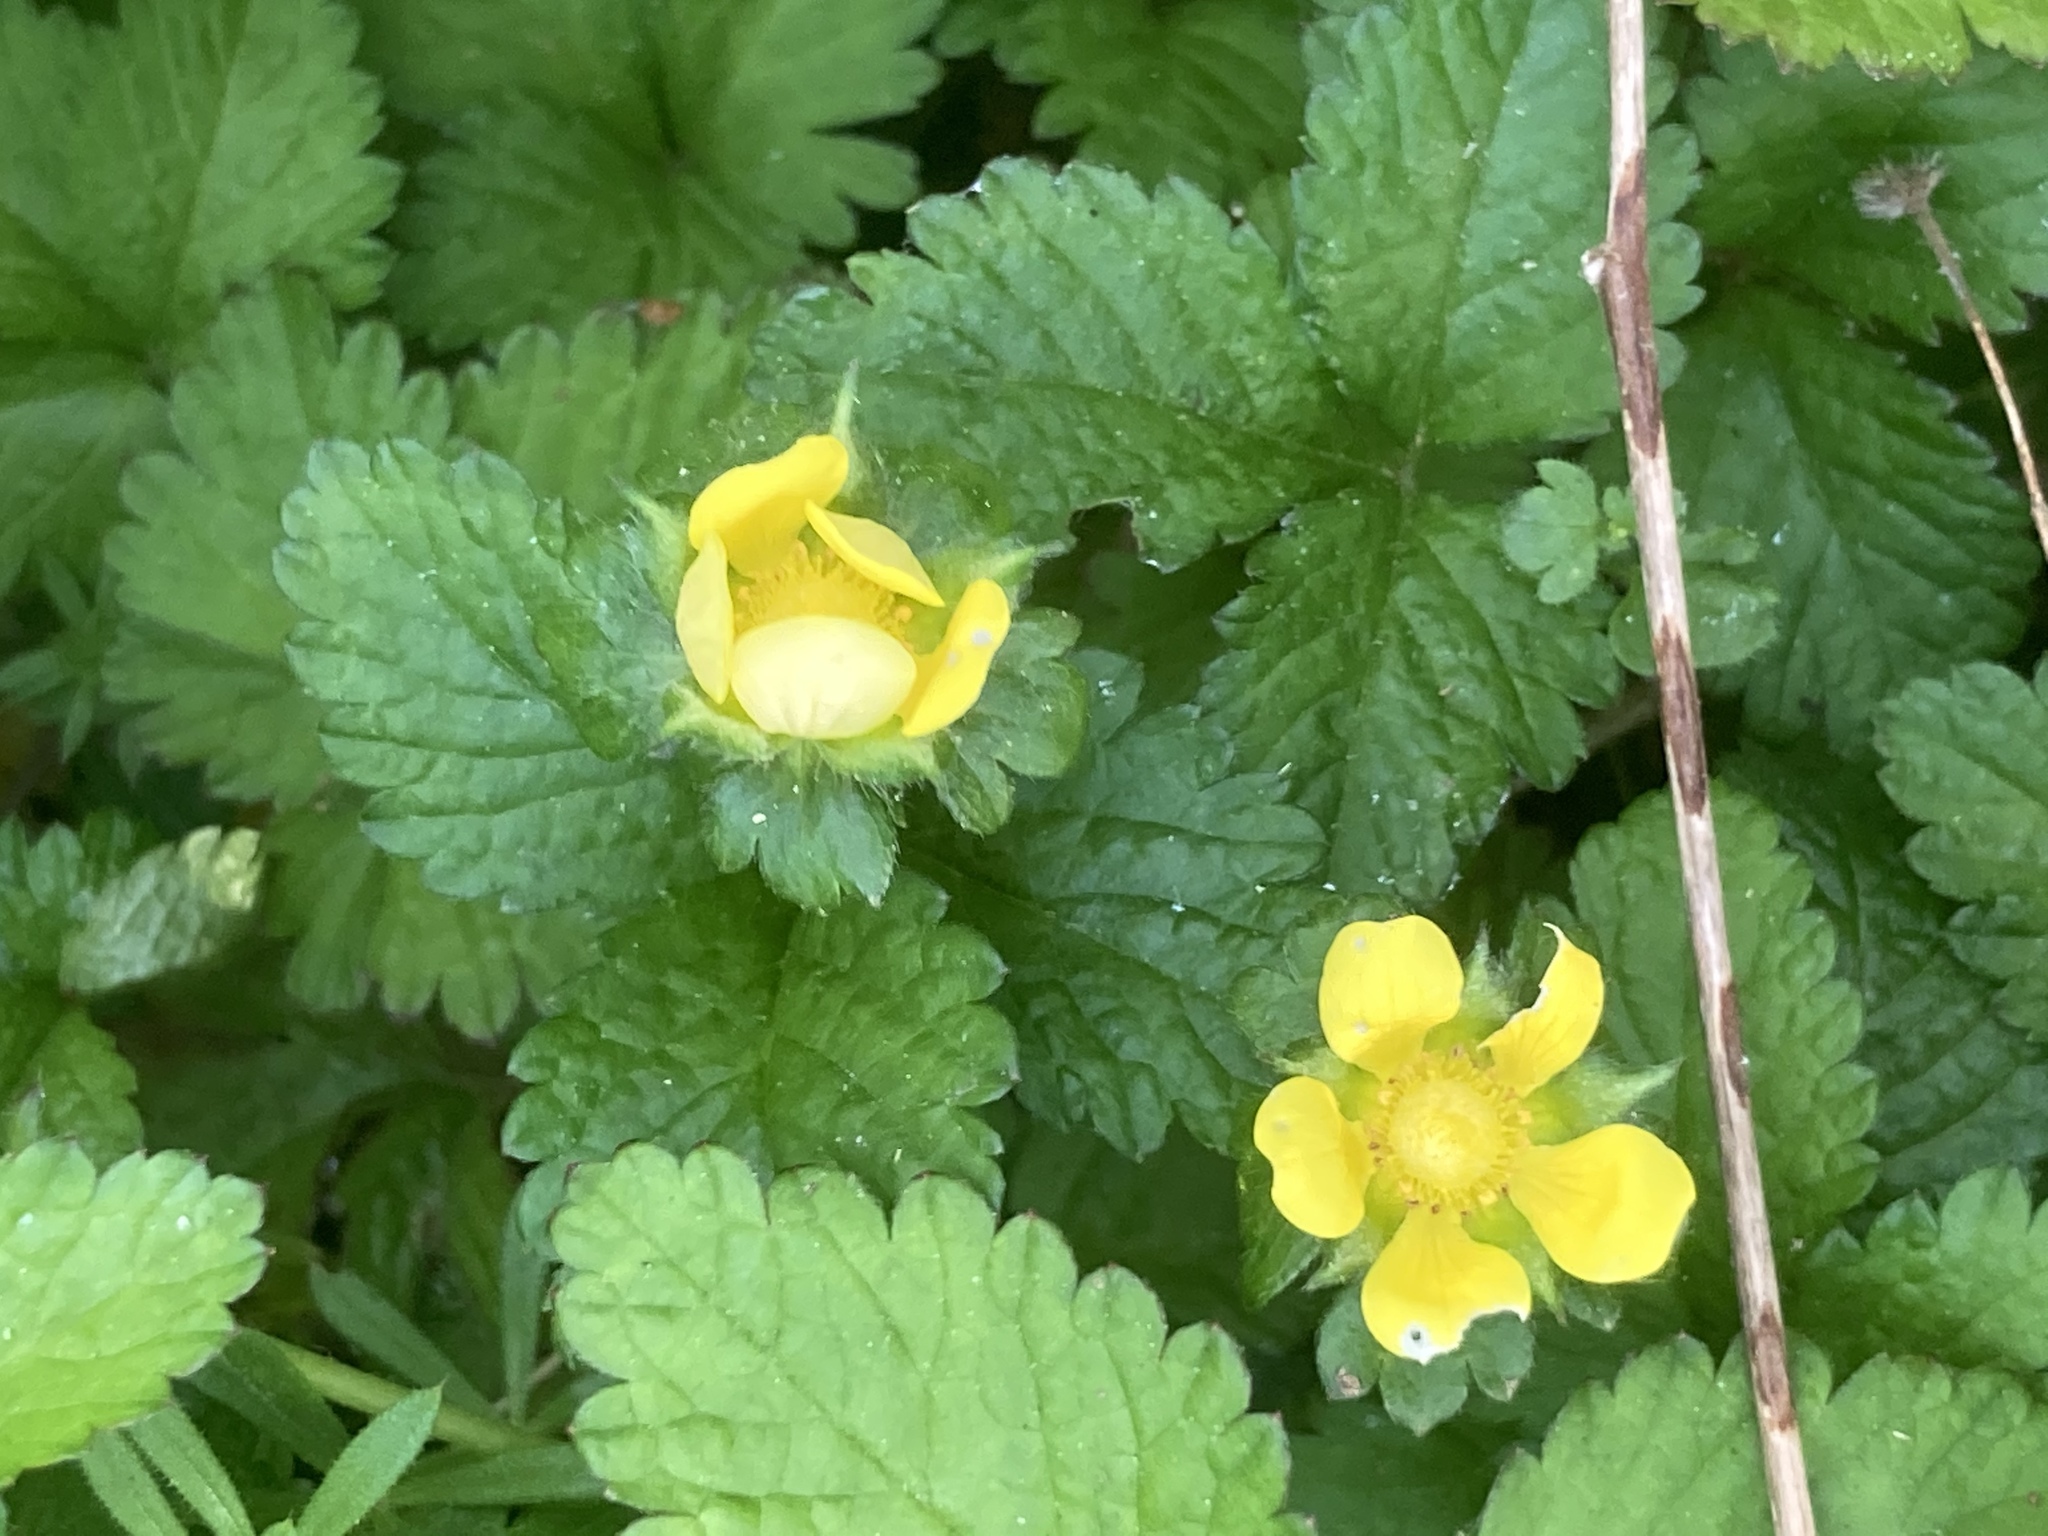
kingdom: Plantae
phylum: Tracheophyta
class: Magnoliopsida
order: Rosales
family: Rosaceae
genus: Potentilla
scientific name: Potentilla indica
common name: Yellow-flowered strawberry
